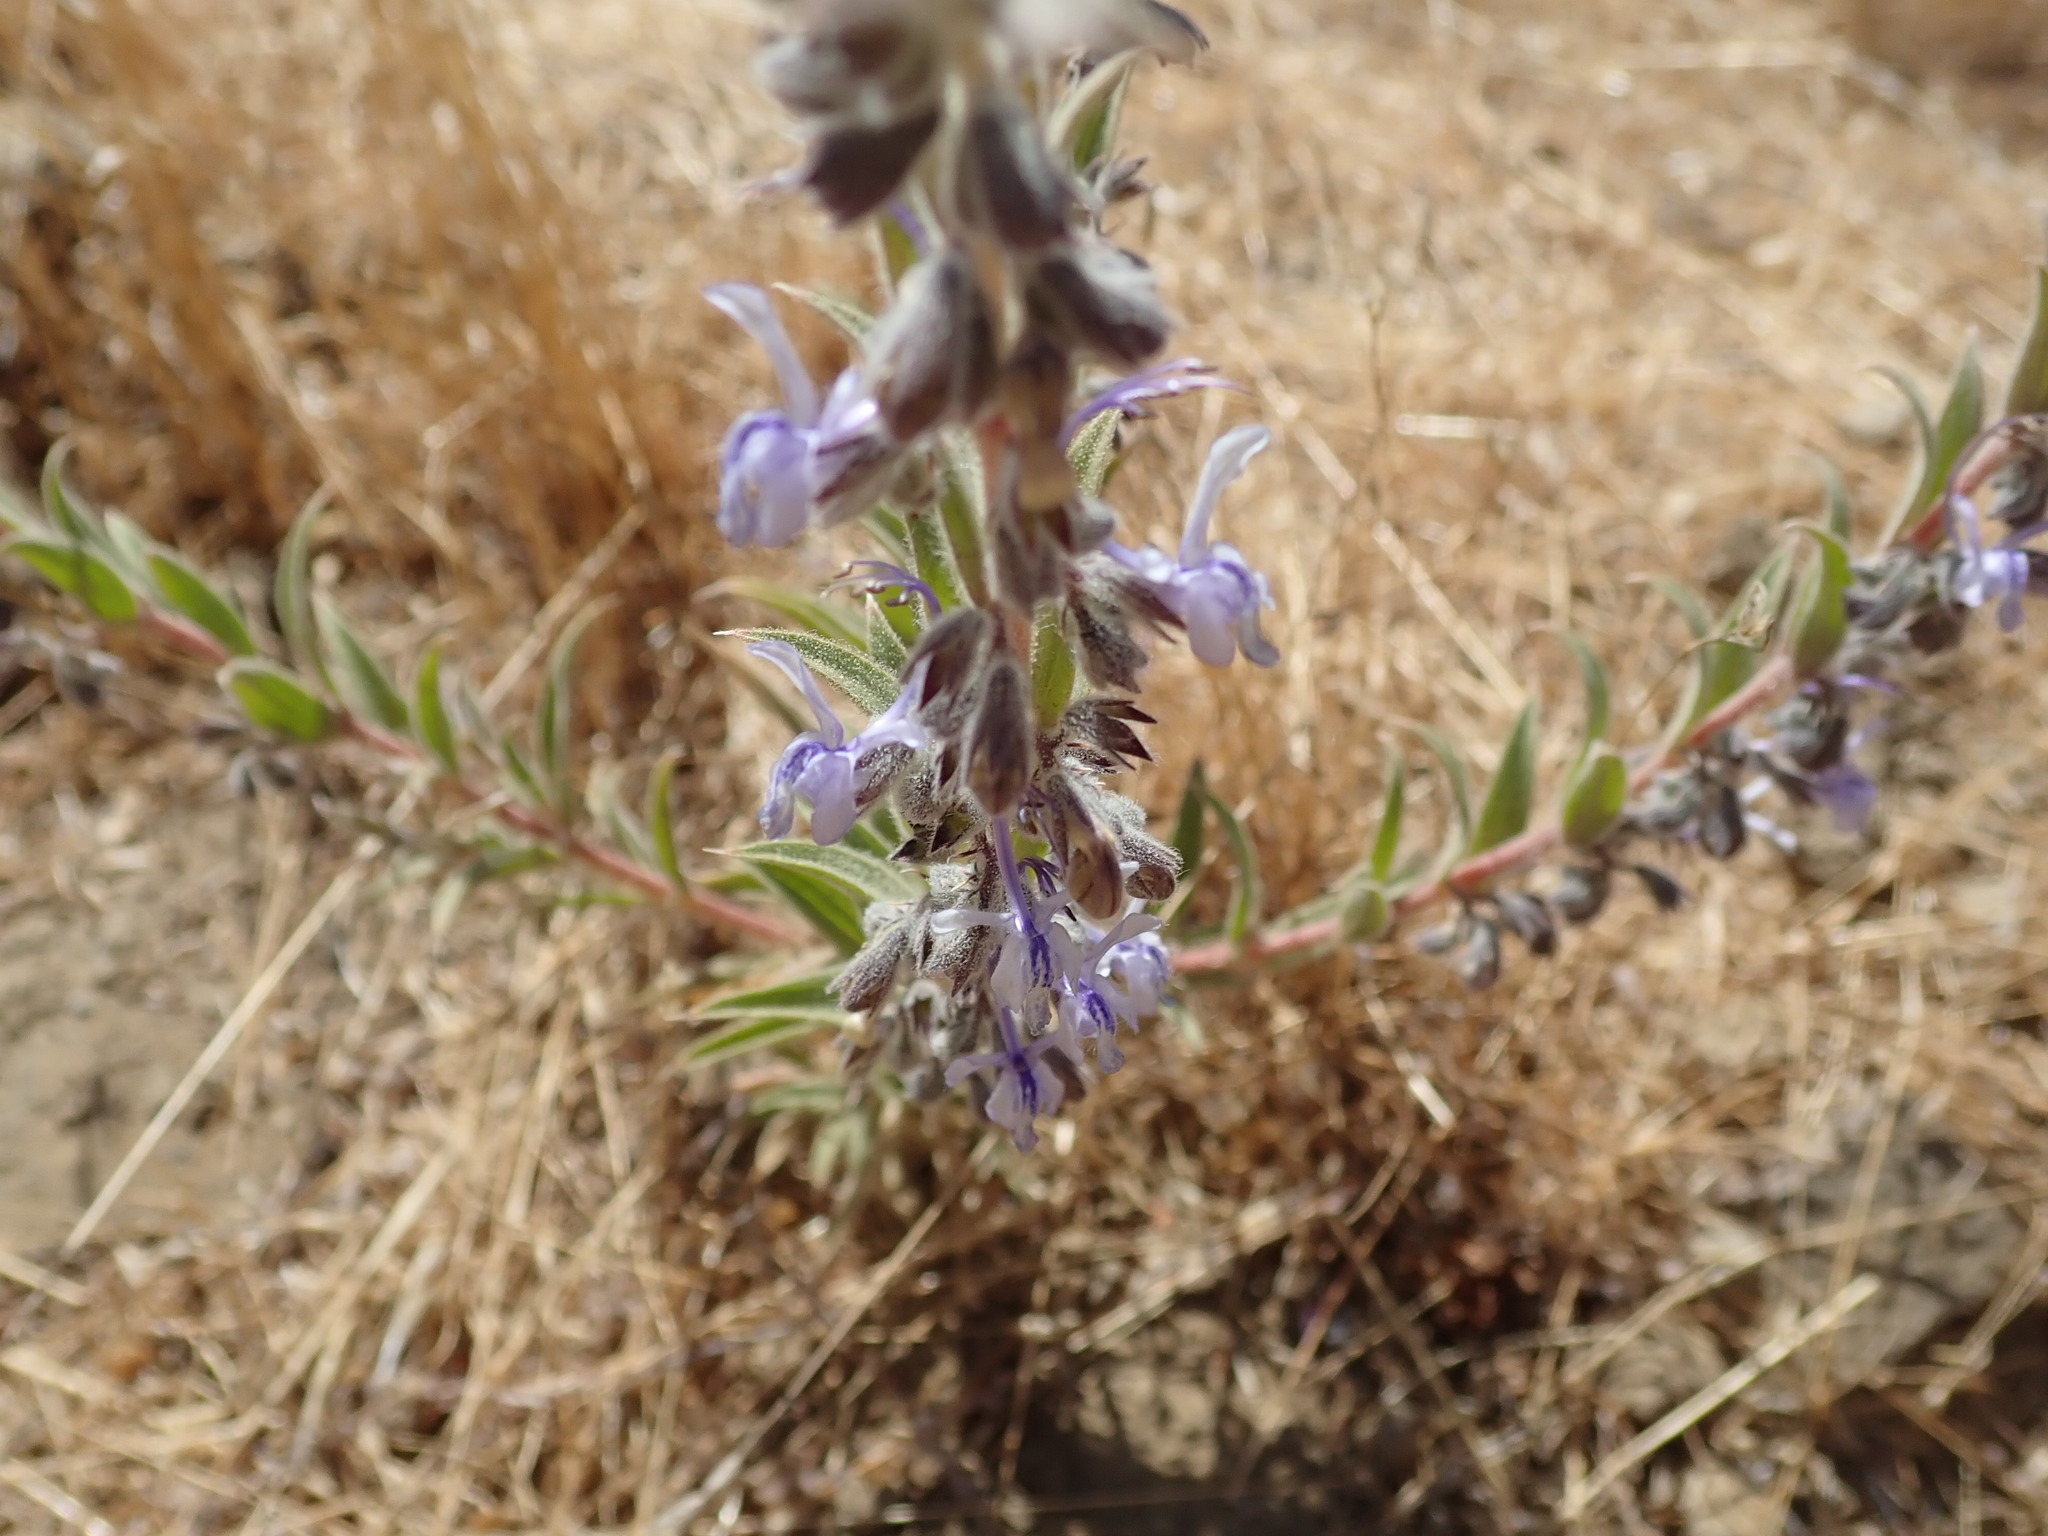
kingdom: Plantae
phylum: Tracheophyta
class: Magnoliopsida
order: Lamiales
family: Lamiaceae
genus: Trichostema
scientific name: Trichostema lanceolatum
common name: Vinegar-weed
